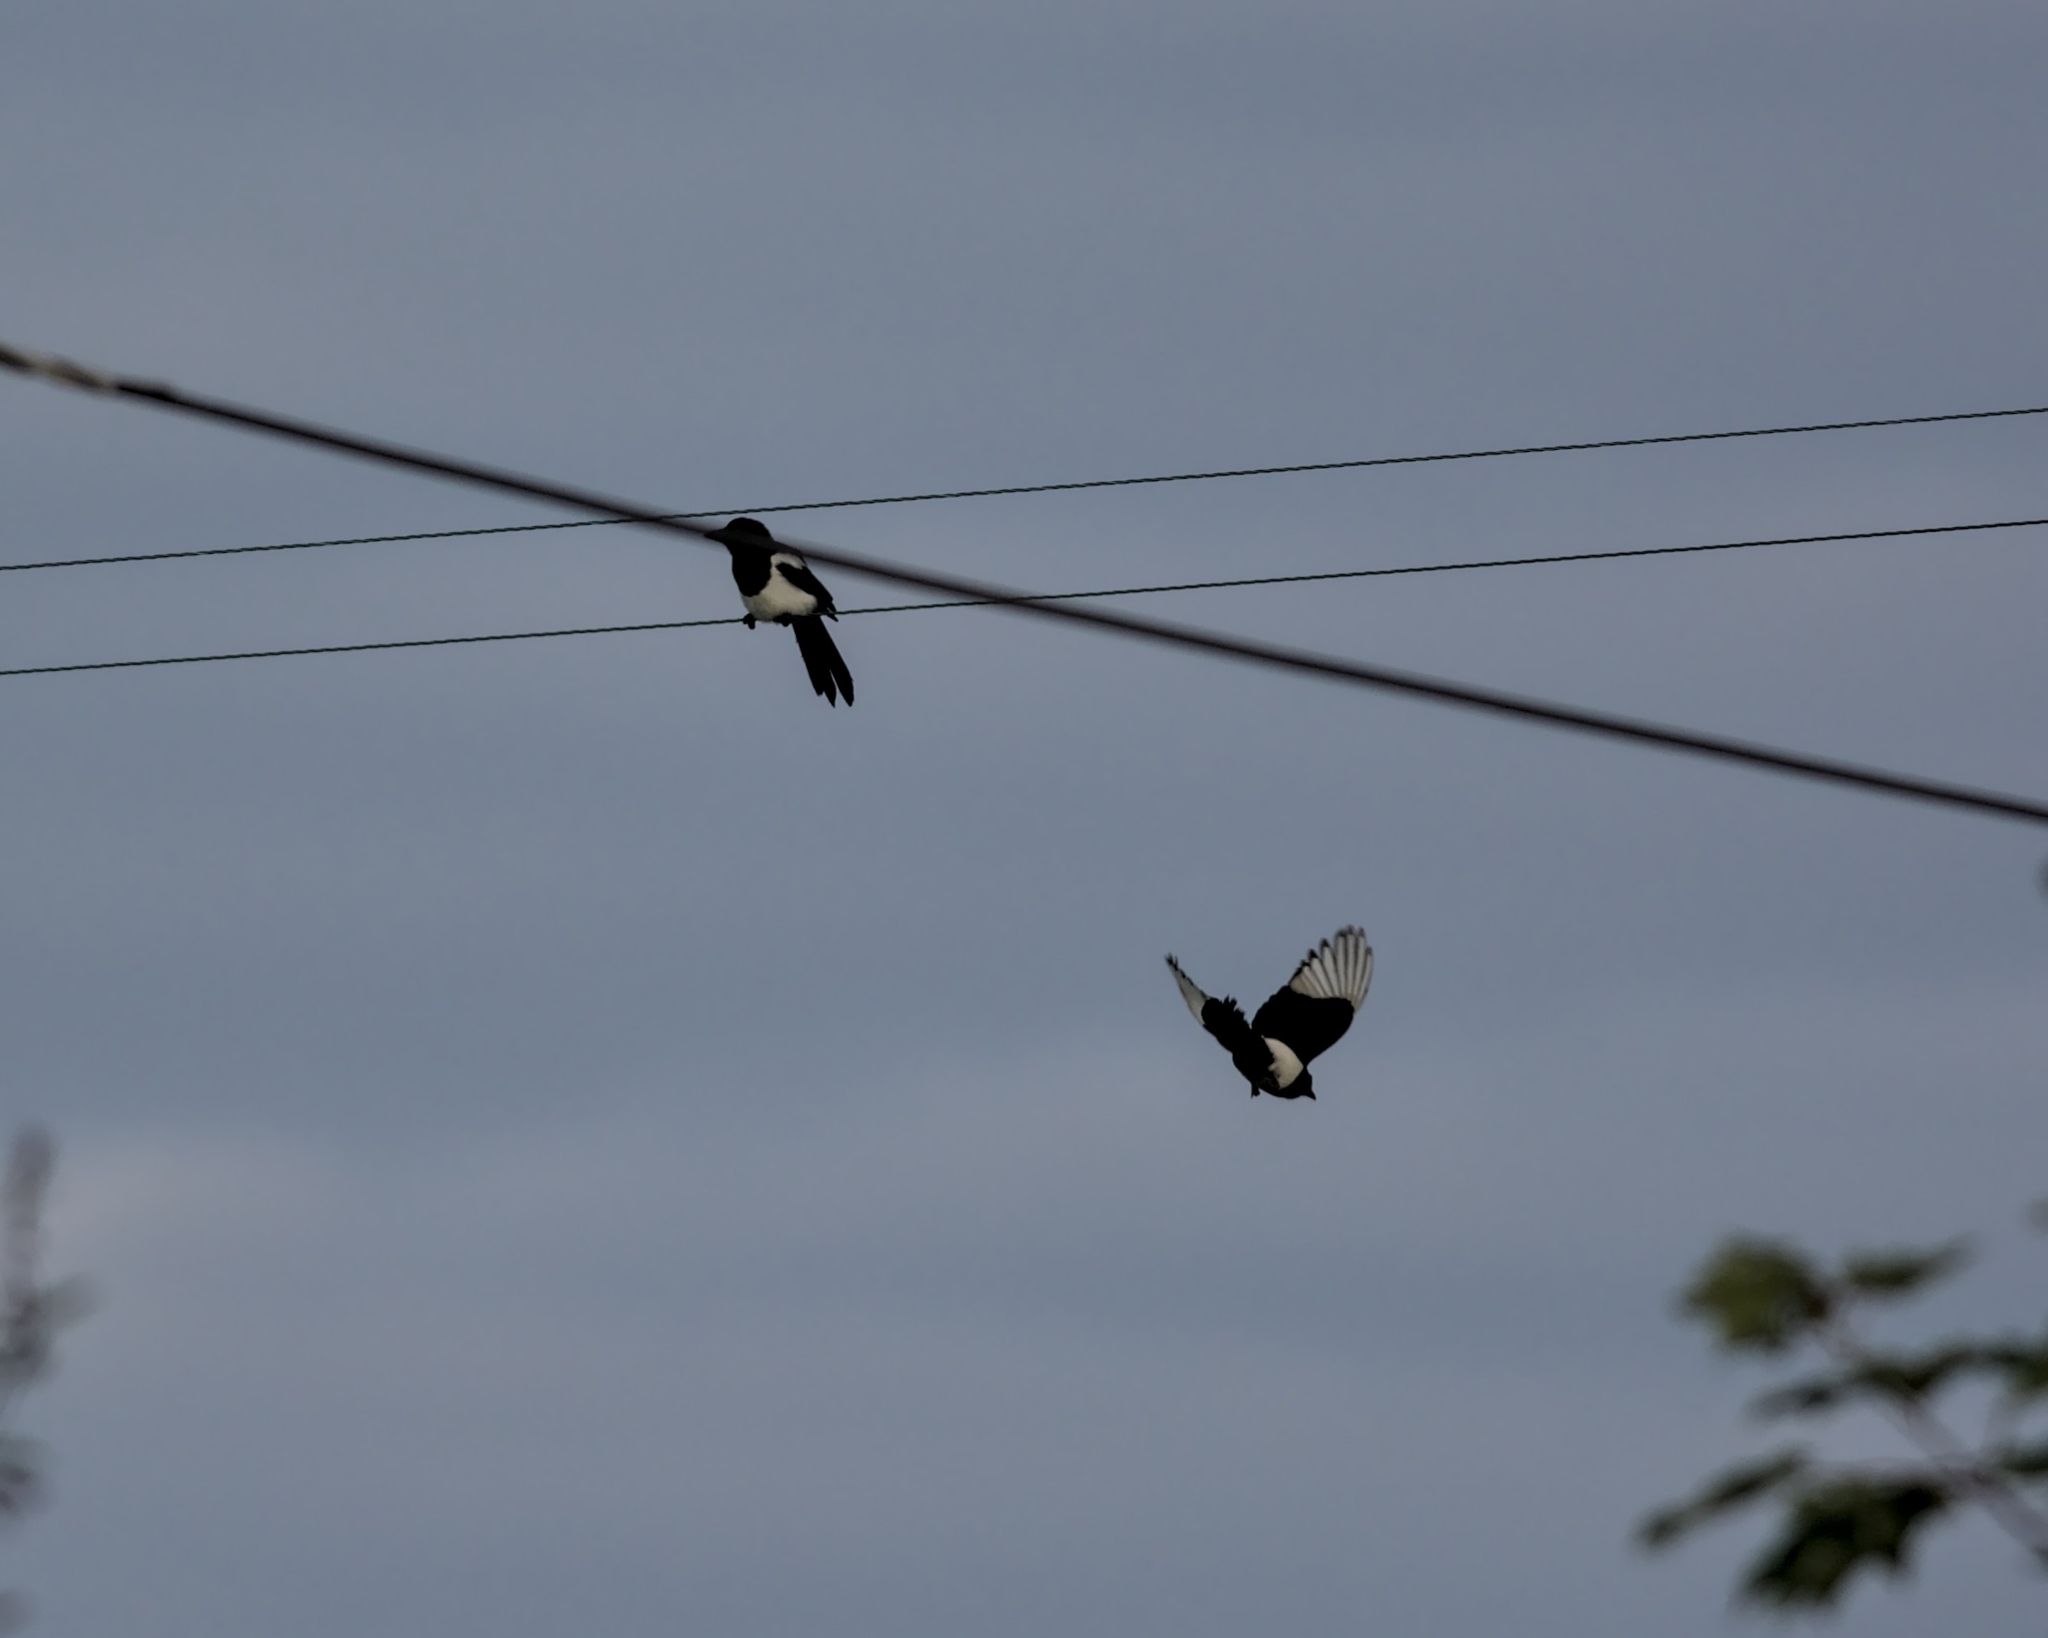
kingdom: Animalia
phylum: Chordata
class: Aves
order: Passeriformes
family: Corvidae
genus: Pica
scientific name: Pica pica
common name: Eurasian magpie
